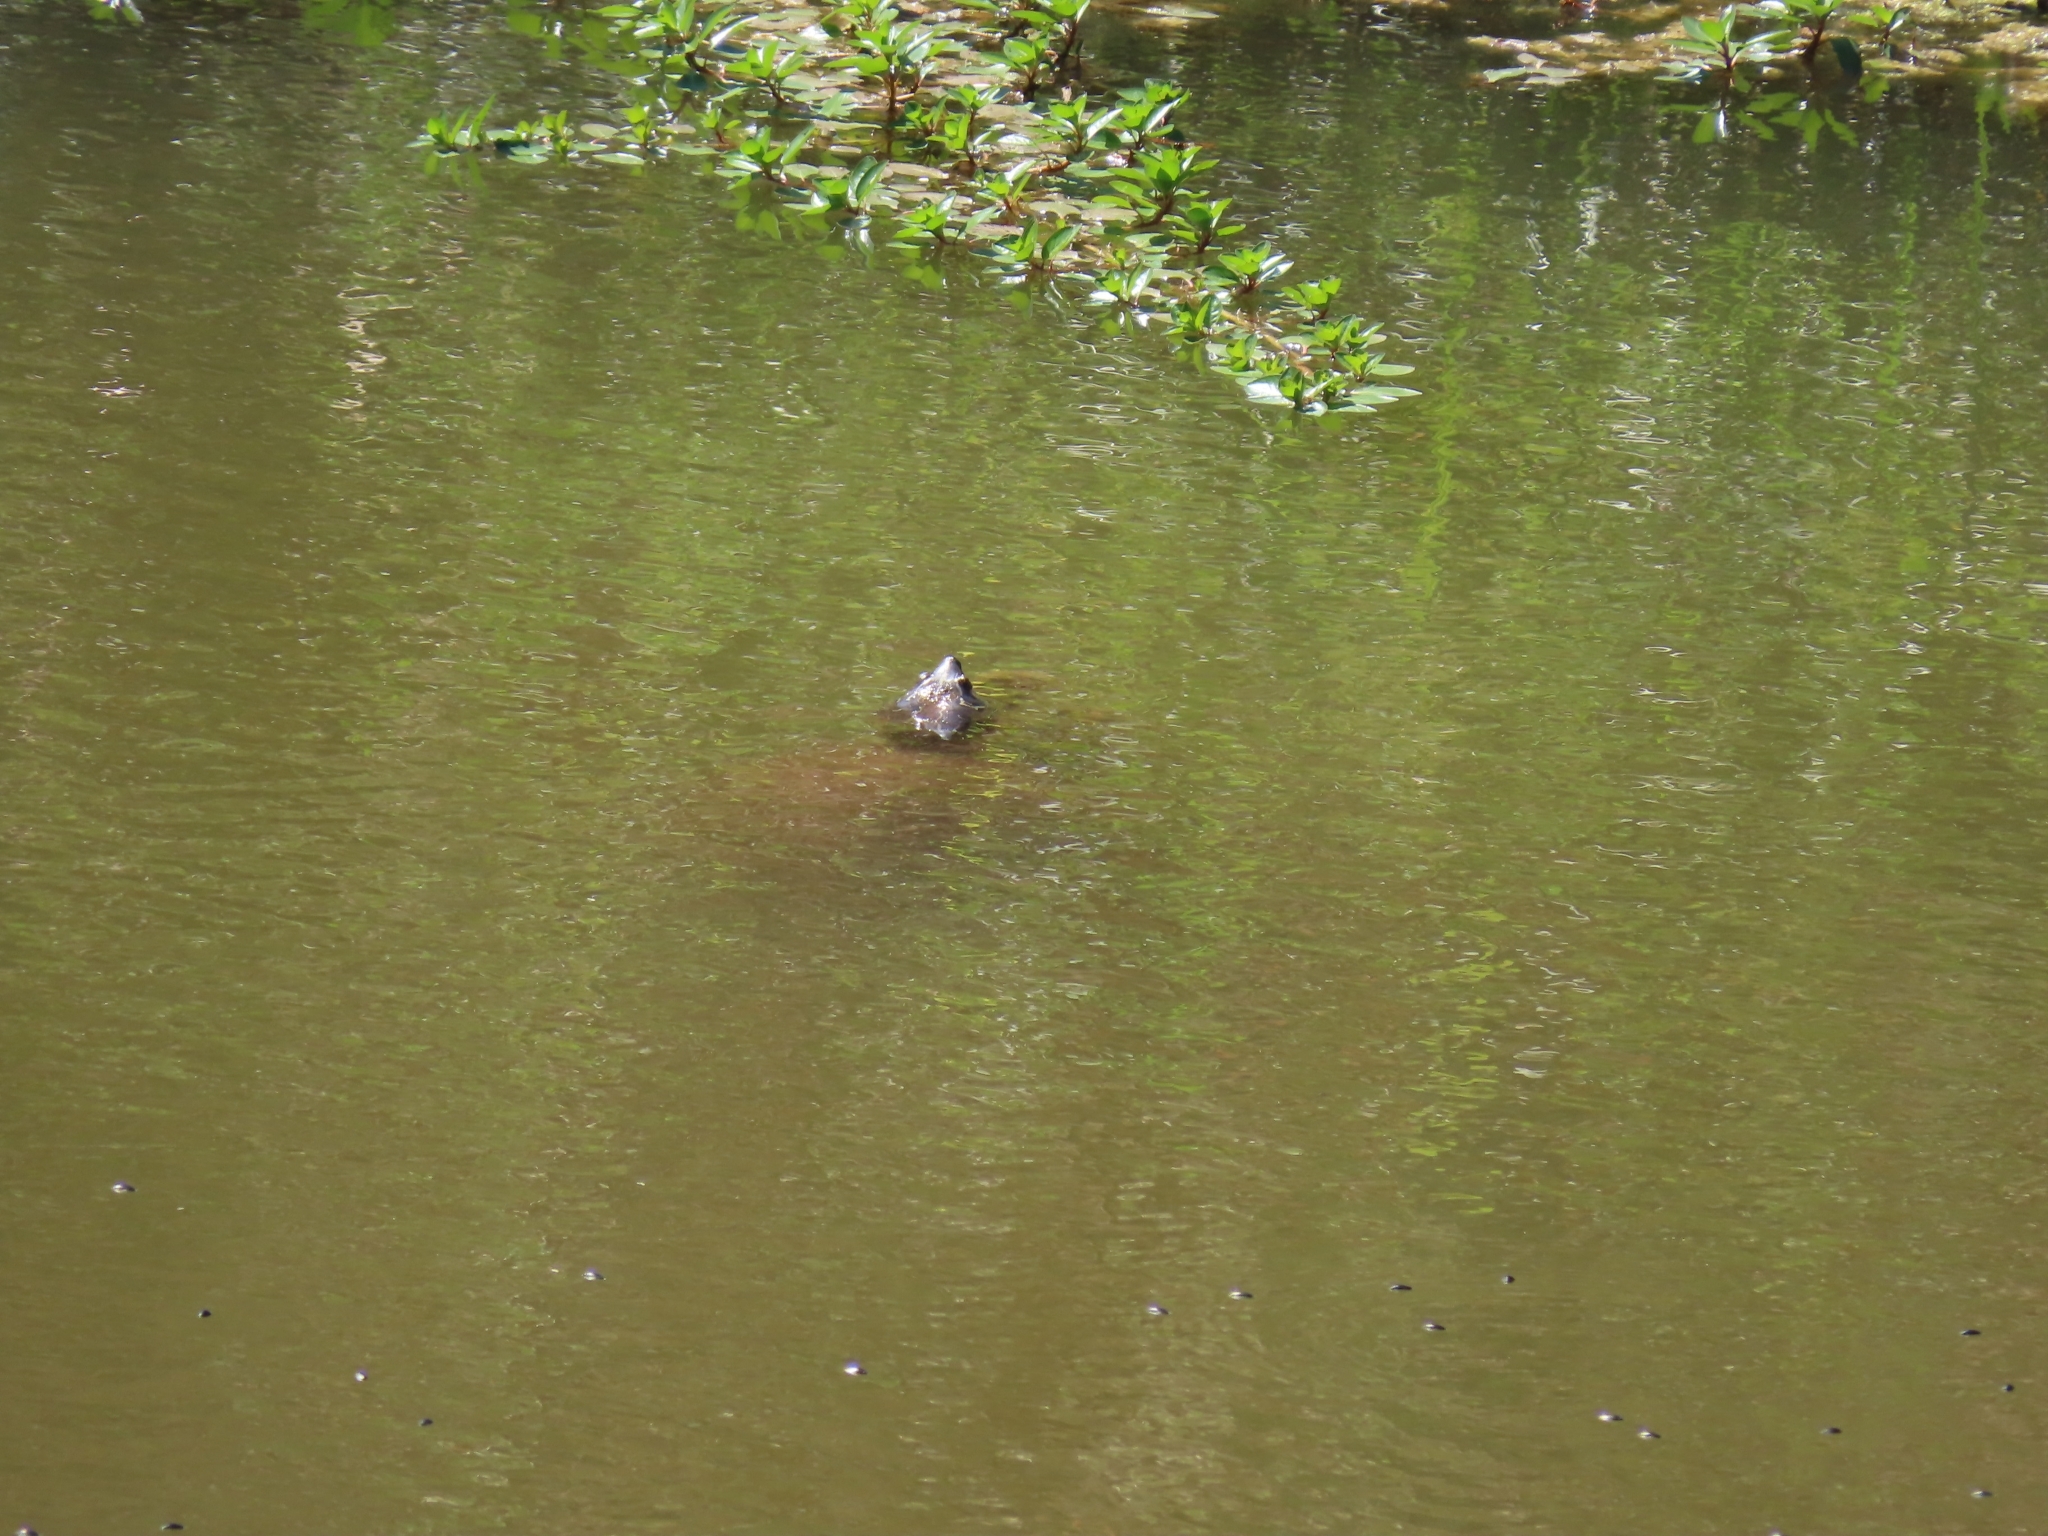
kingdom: Animalia
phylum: Chordata
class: Testudines
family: Trionychidae
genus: Apalone
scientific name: Apalone spinifera
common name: Spiny softshell turtle
